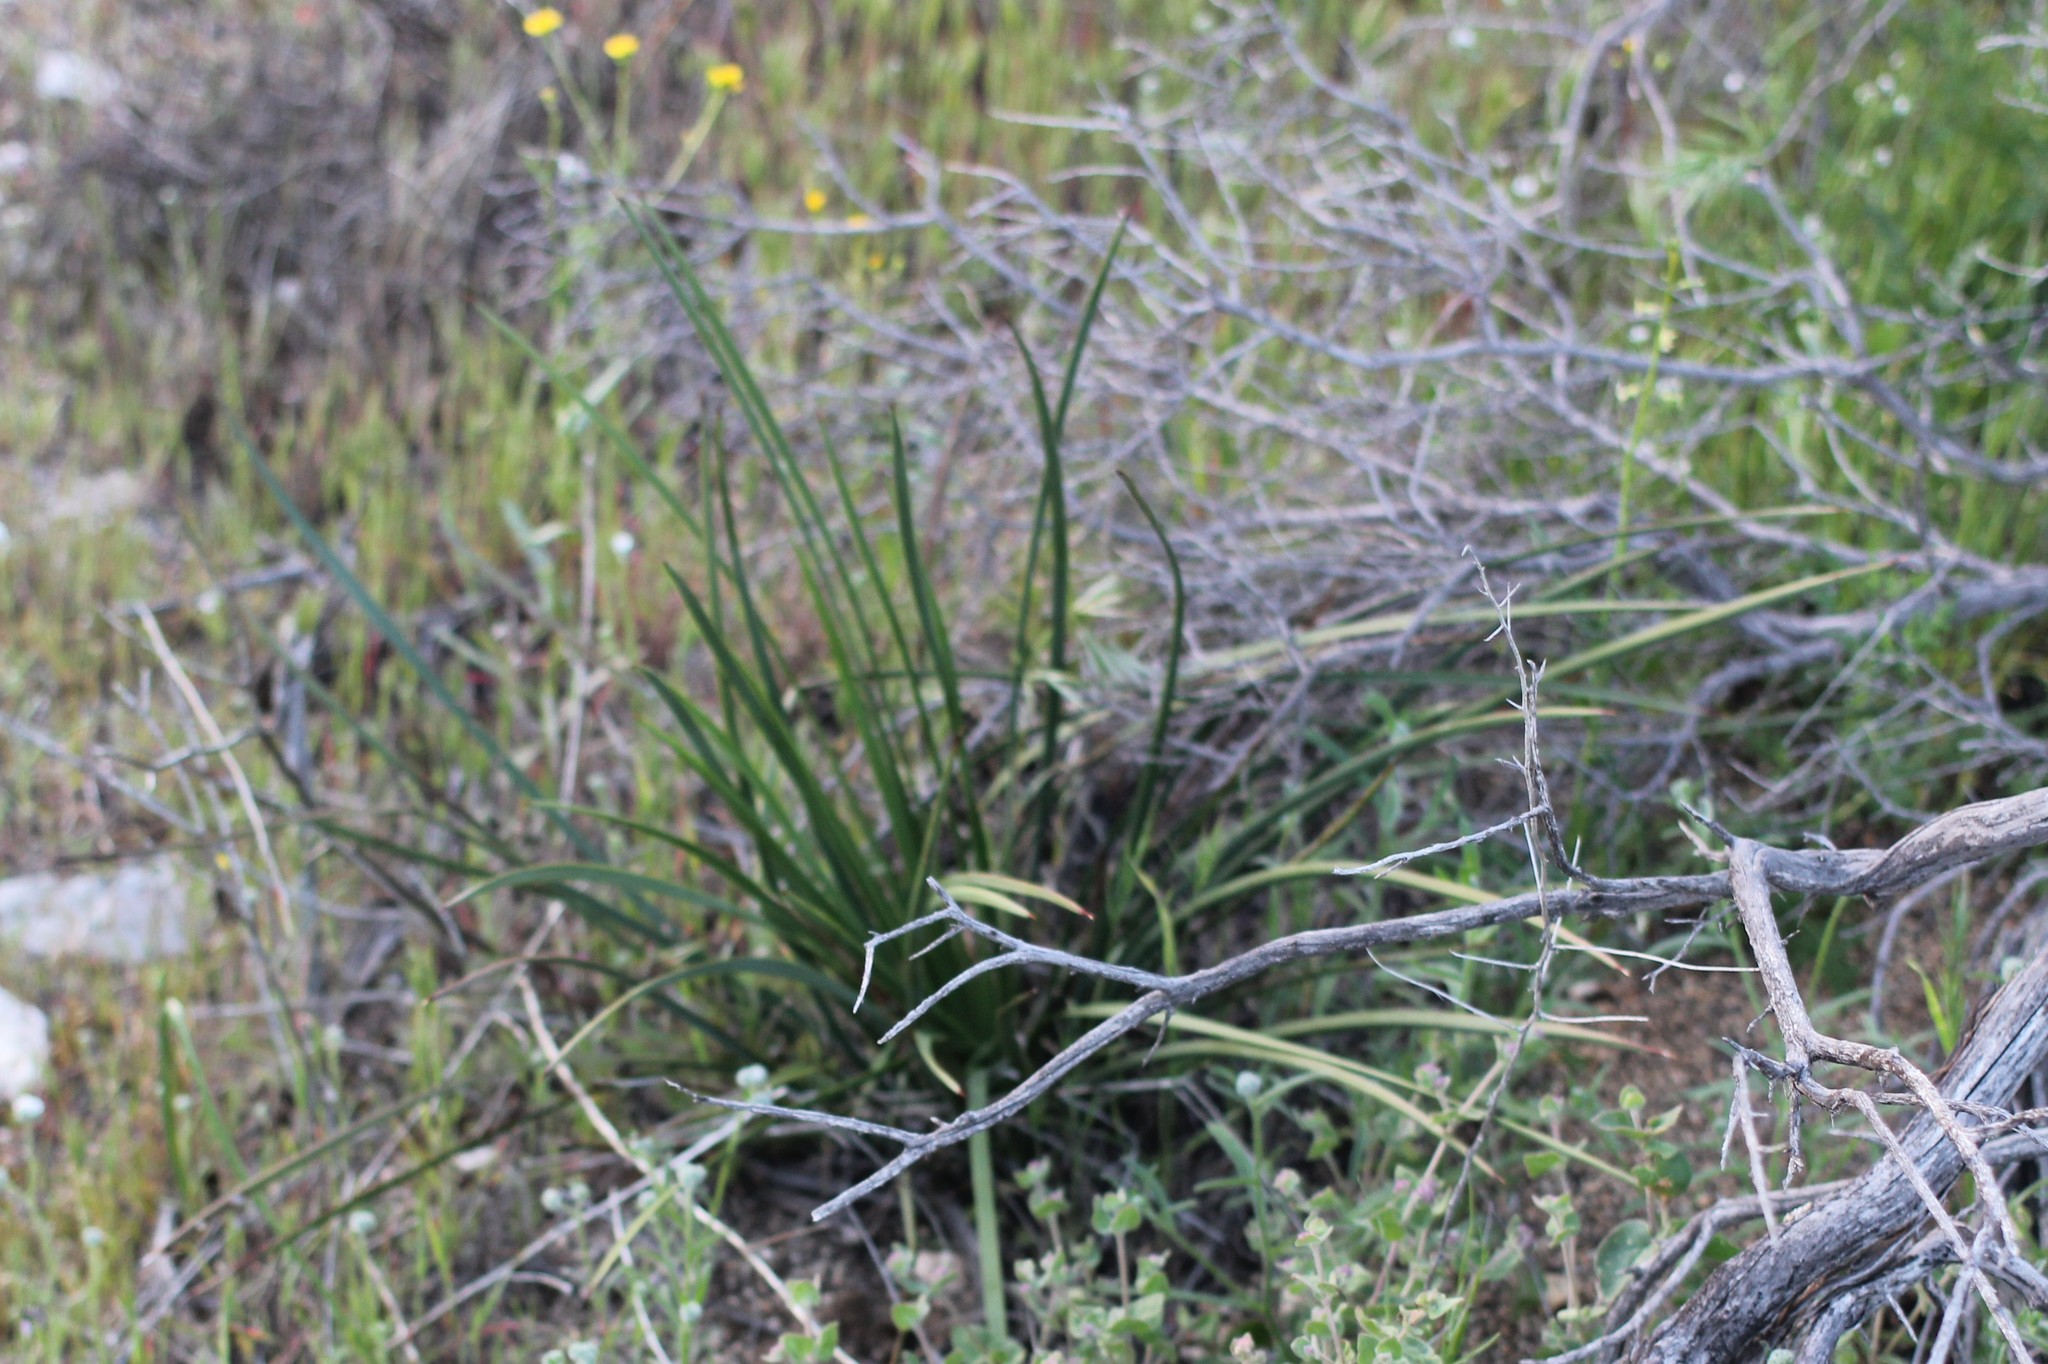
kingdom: Plantae
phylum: Tracheophyta
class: Liliopsida
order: Asparagales
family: Asparagaceae
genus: Hesperoyucca
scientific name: Hesperoyucca whipplei
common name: Our lord's-candle
